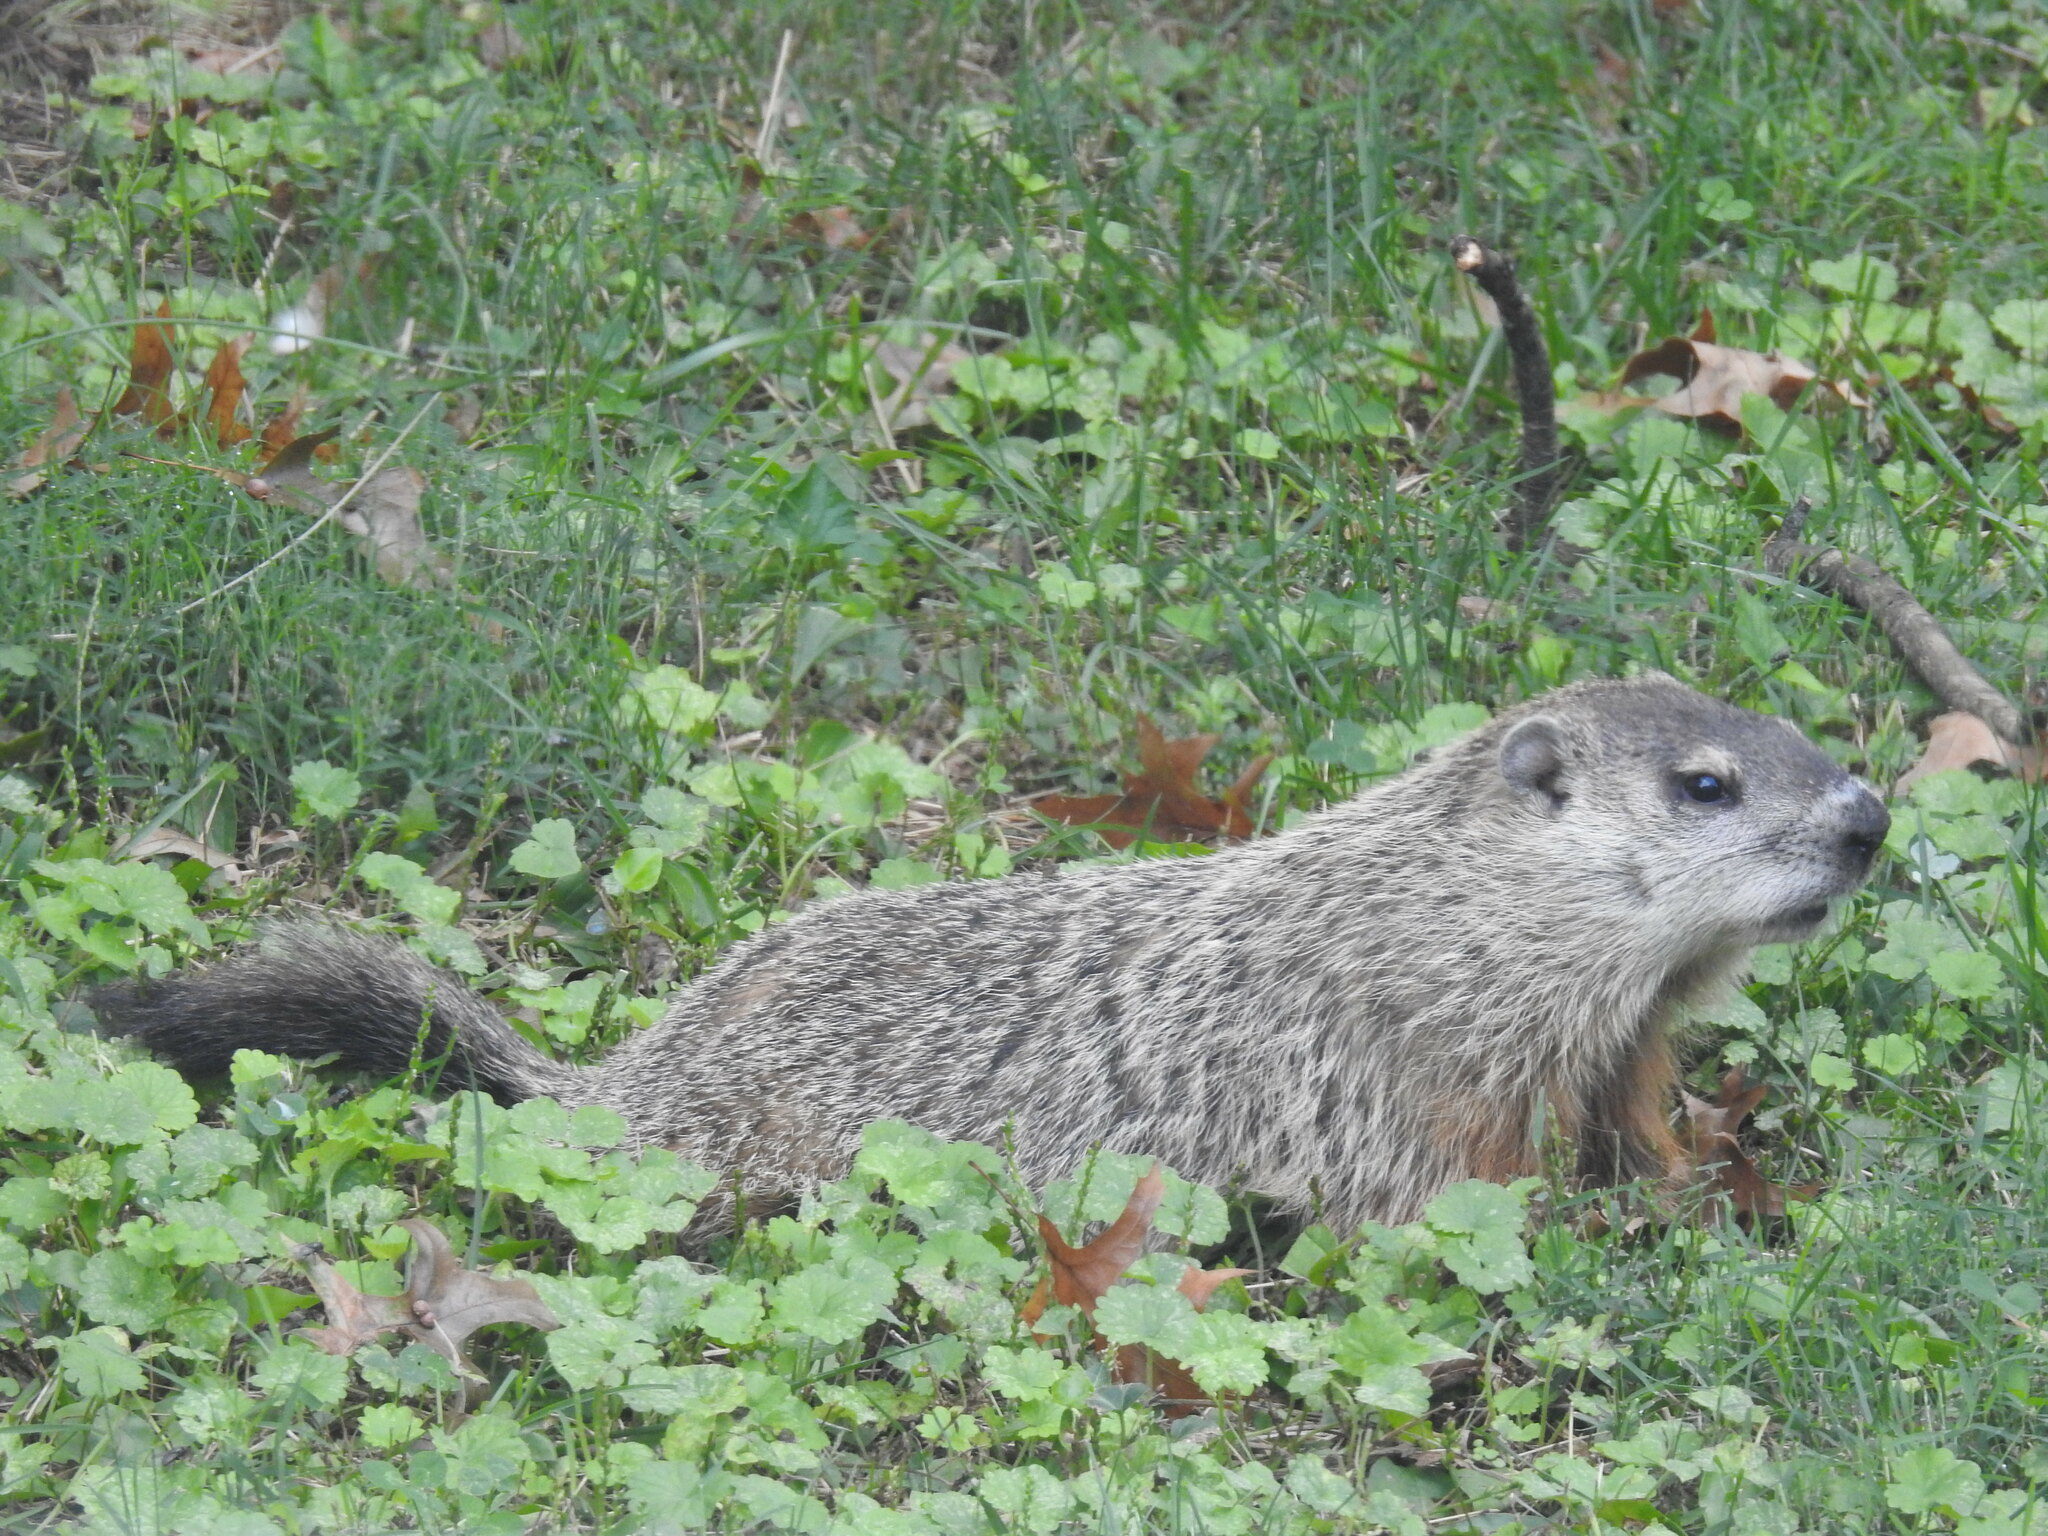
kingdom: Animalia
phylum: Chordata
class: Mammalia
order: Rodentia
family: Sciuridae
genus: Marmota
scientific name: Marmota monax
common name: Groundhog
